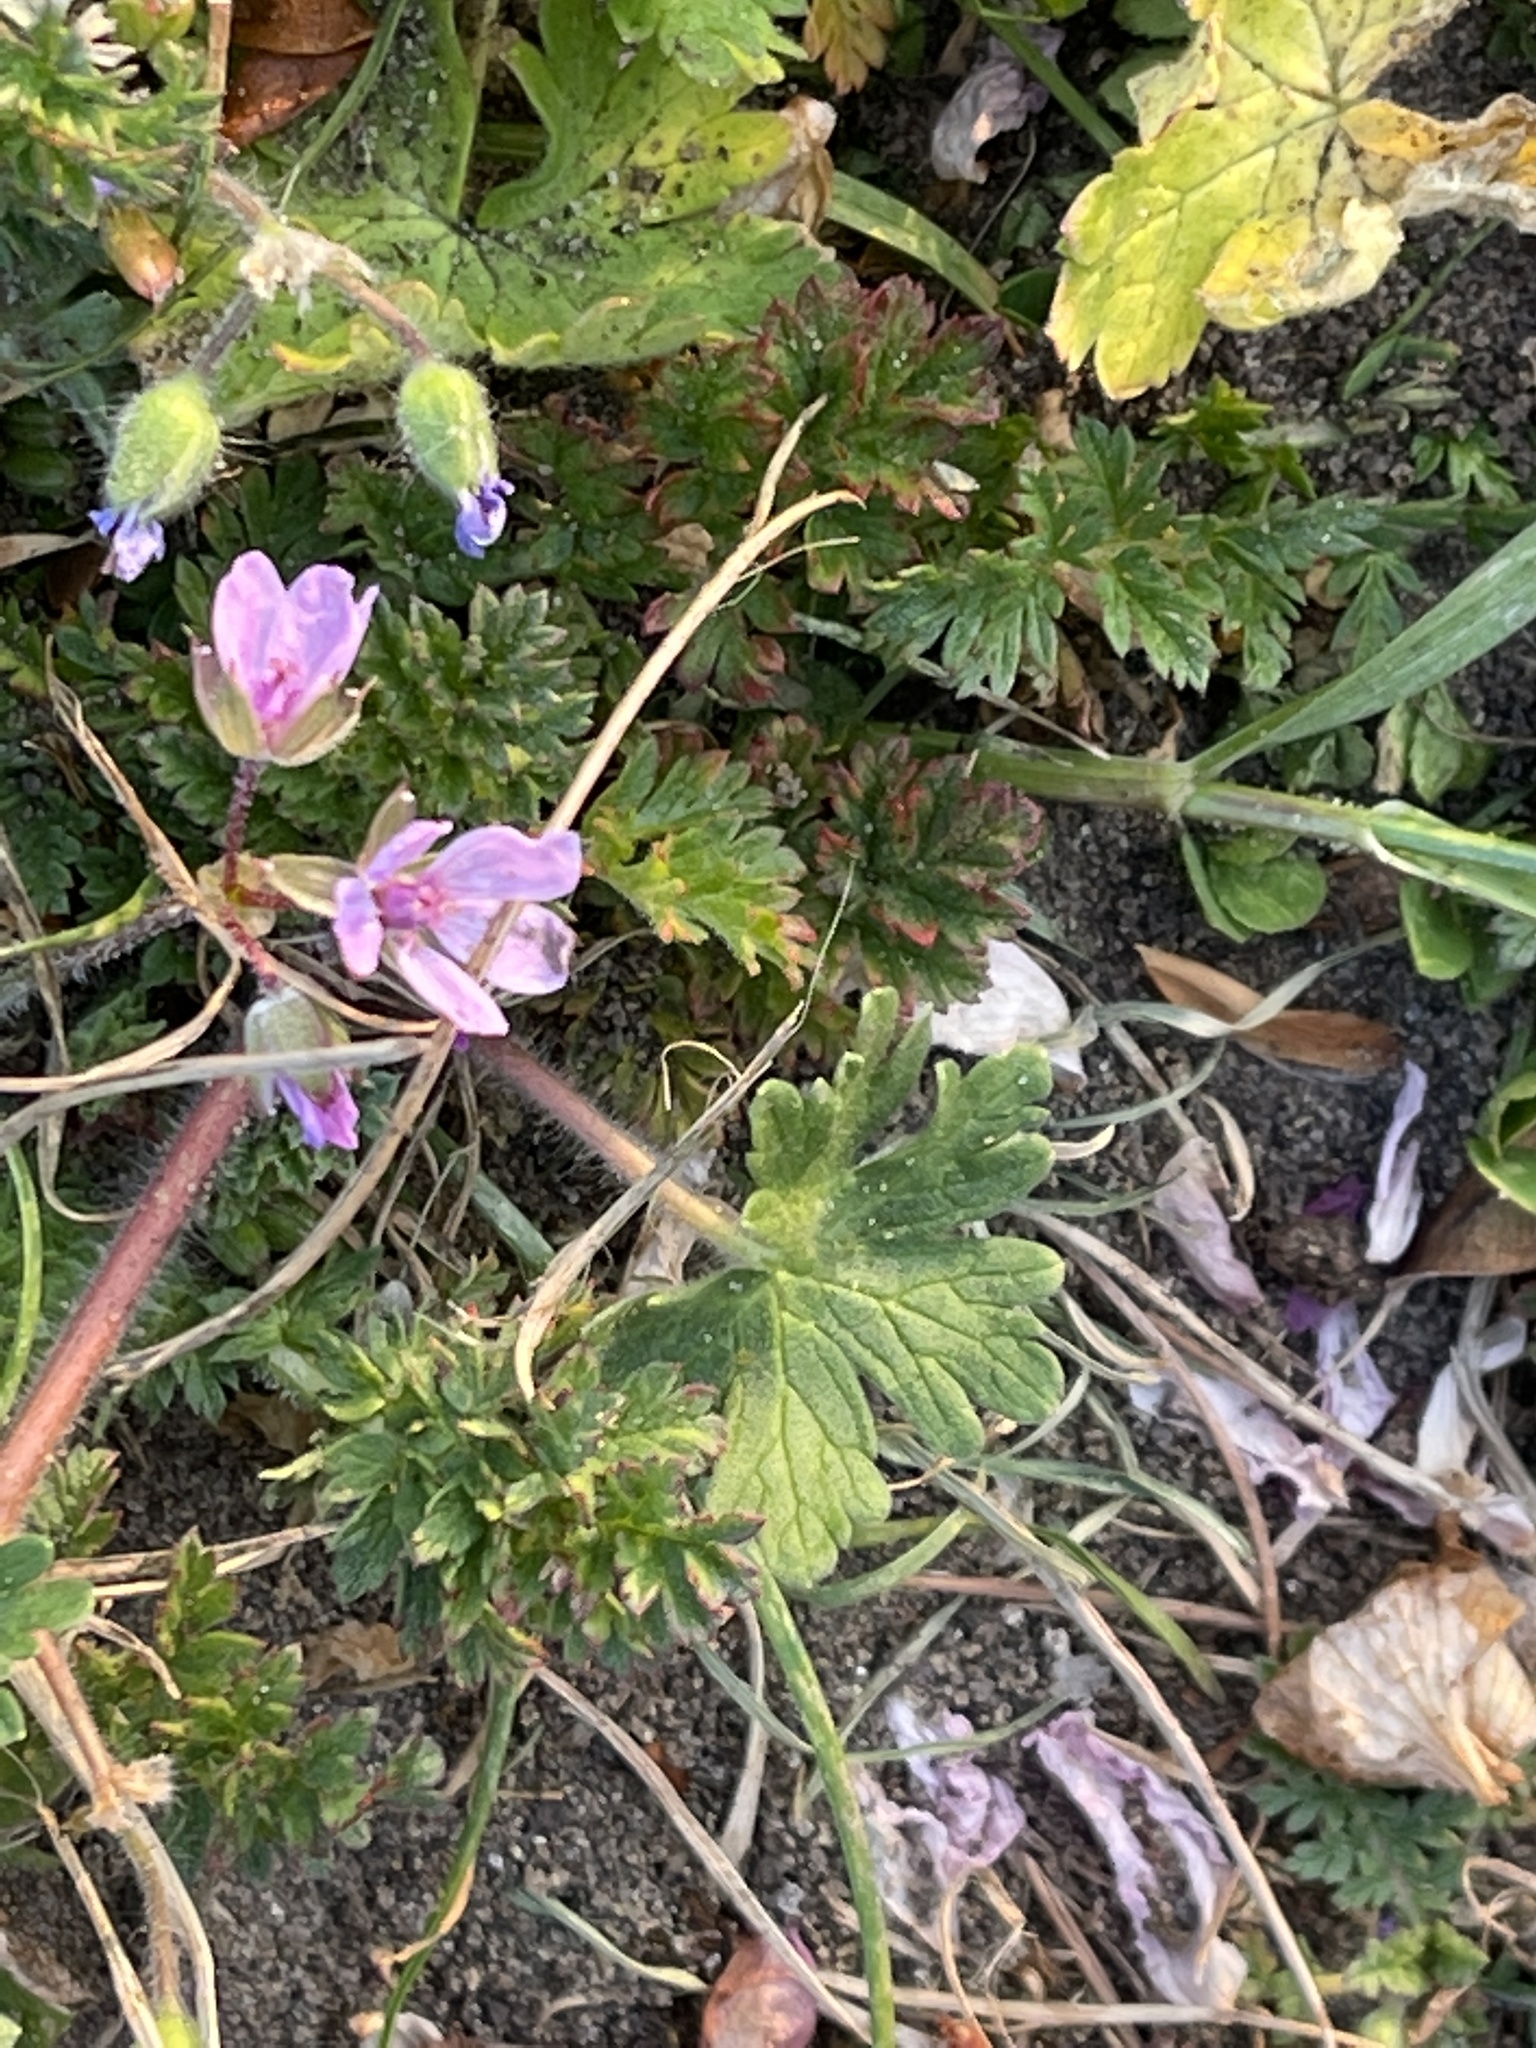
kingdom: Plantae
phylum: Tracheophyta
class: Magnoliopsida
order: Geraniales
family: Geraniaceae
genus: Erodium
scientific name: Erodium cicutarium
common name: Common stork's-bill
